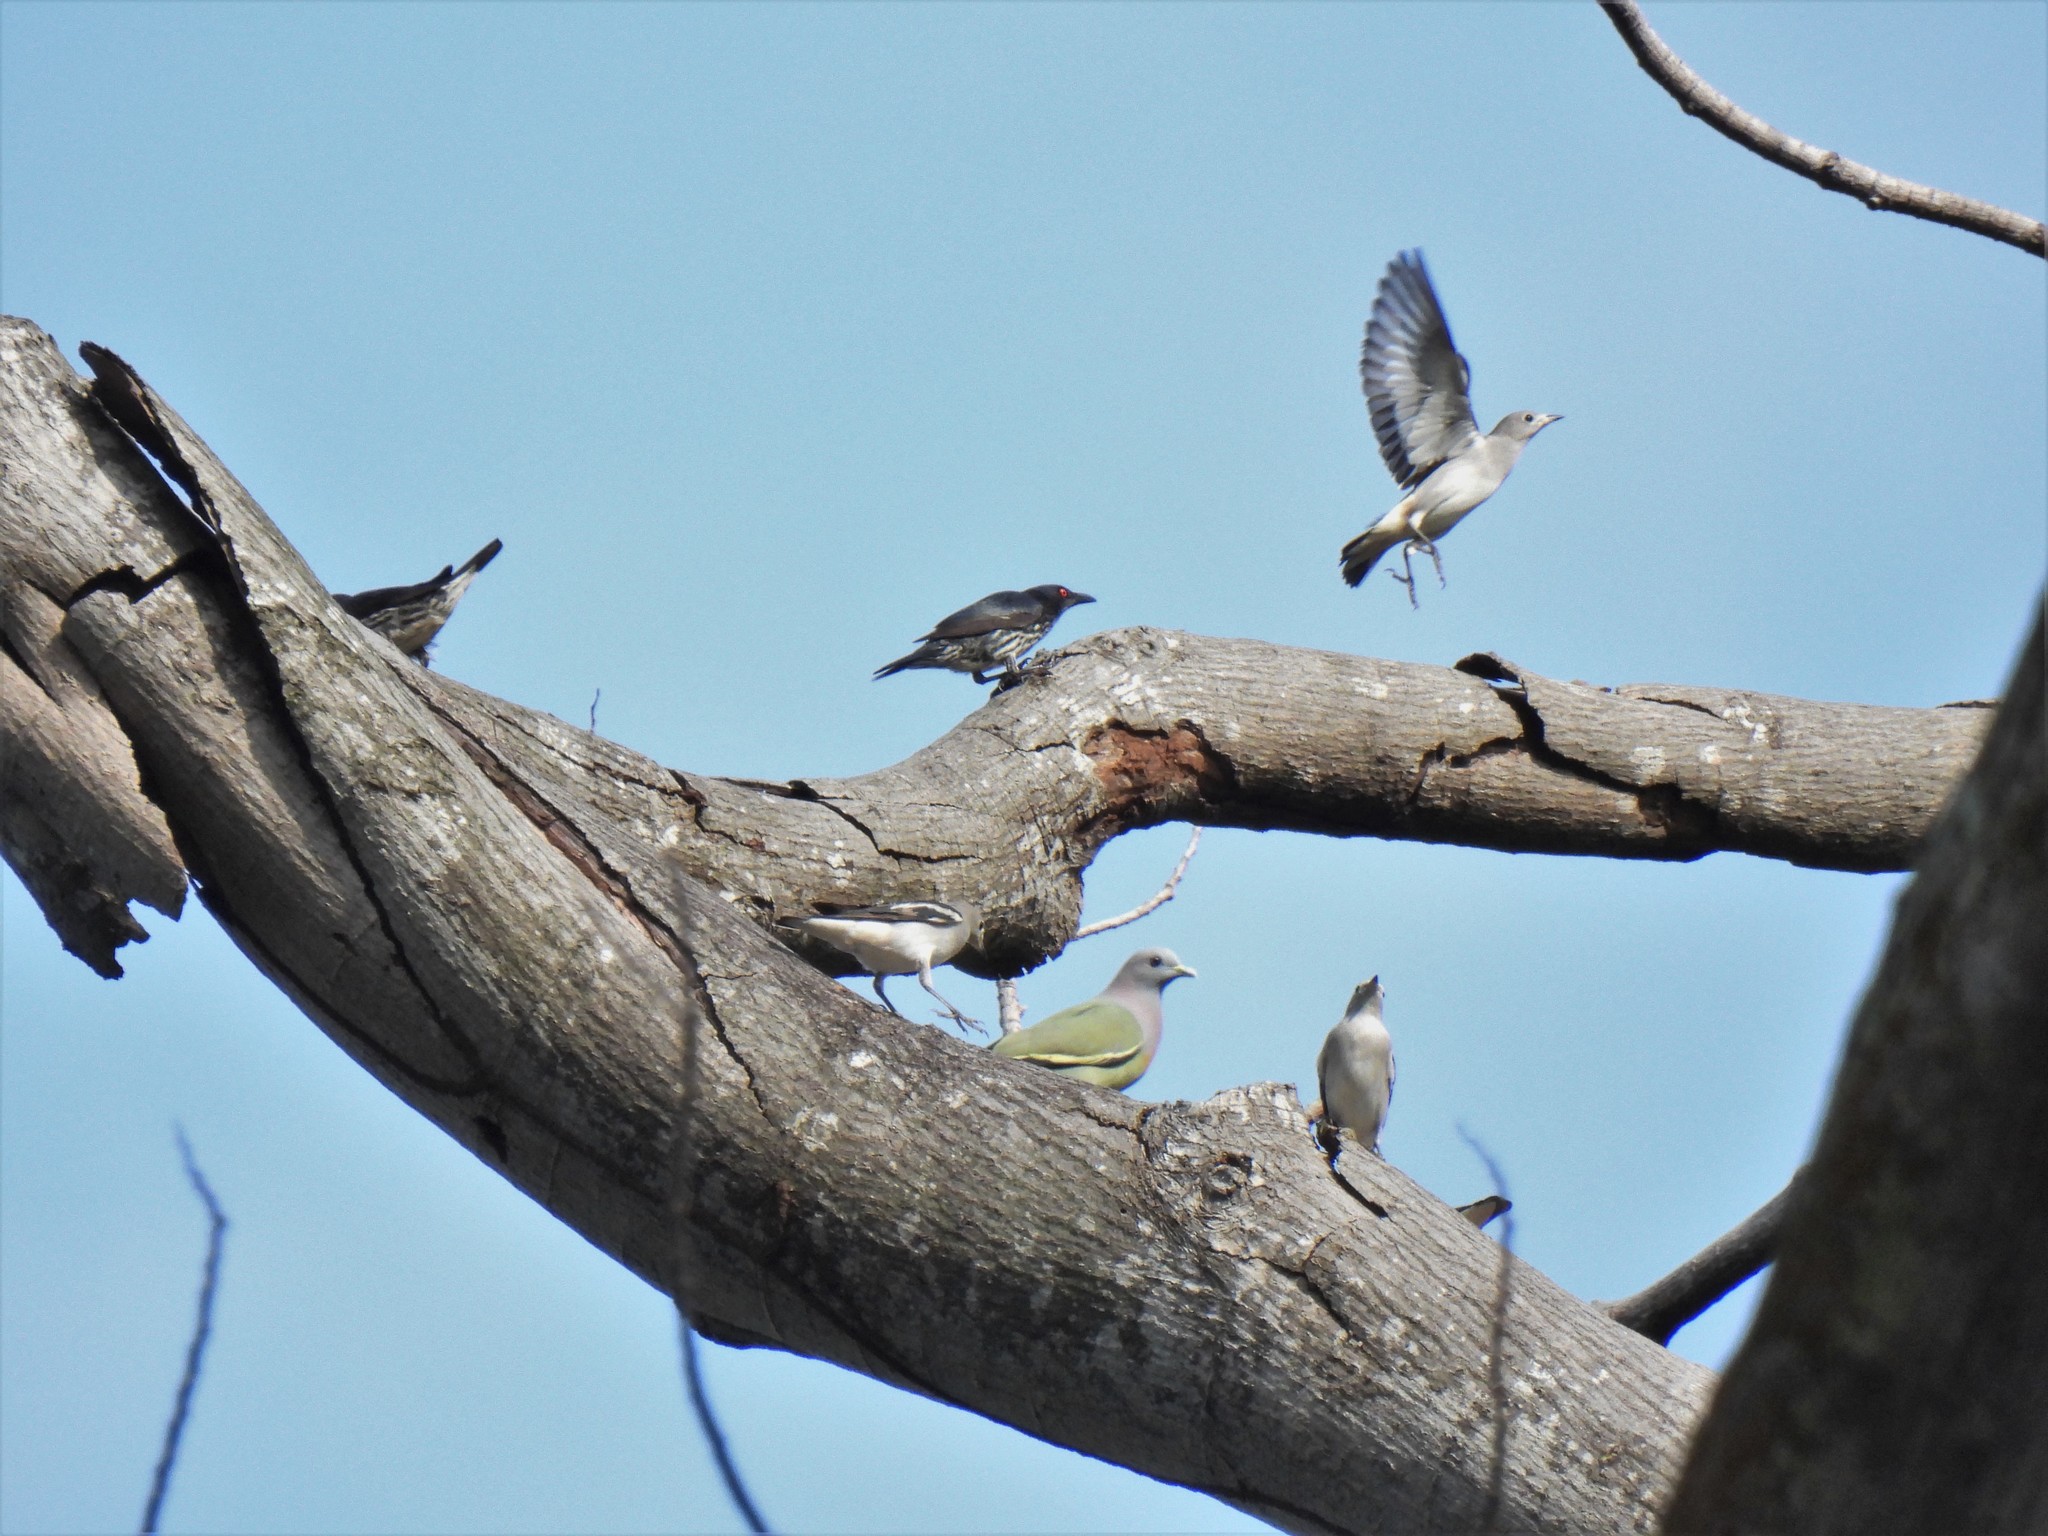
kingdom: Animalia
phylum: Chordata
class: Aves
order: Passeriformes
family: Sturnidae
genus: Agropsar
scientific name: Agropsar sturninus
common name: Daurian starling
